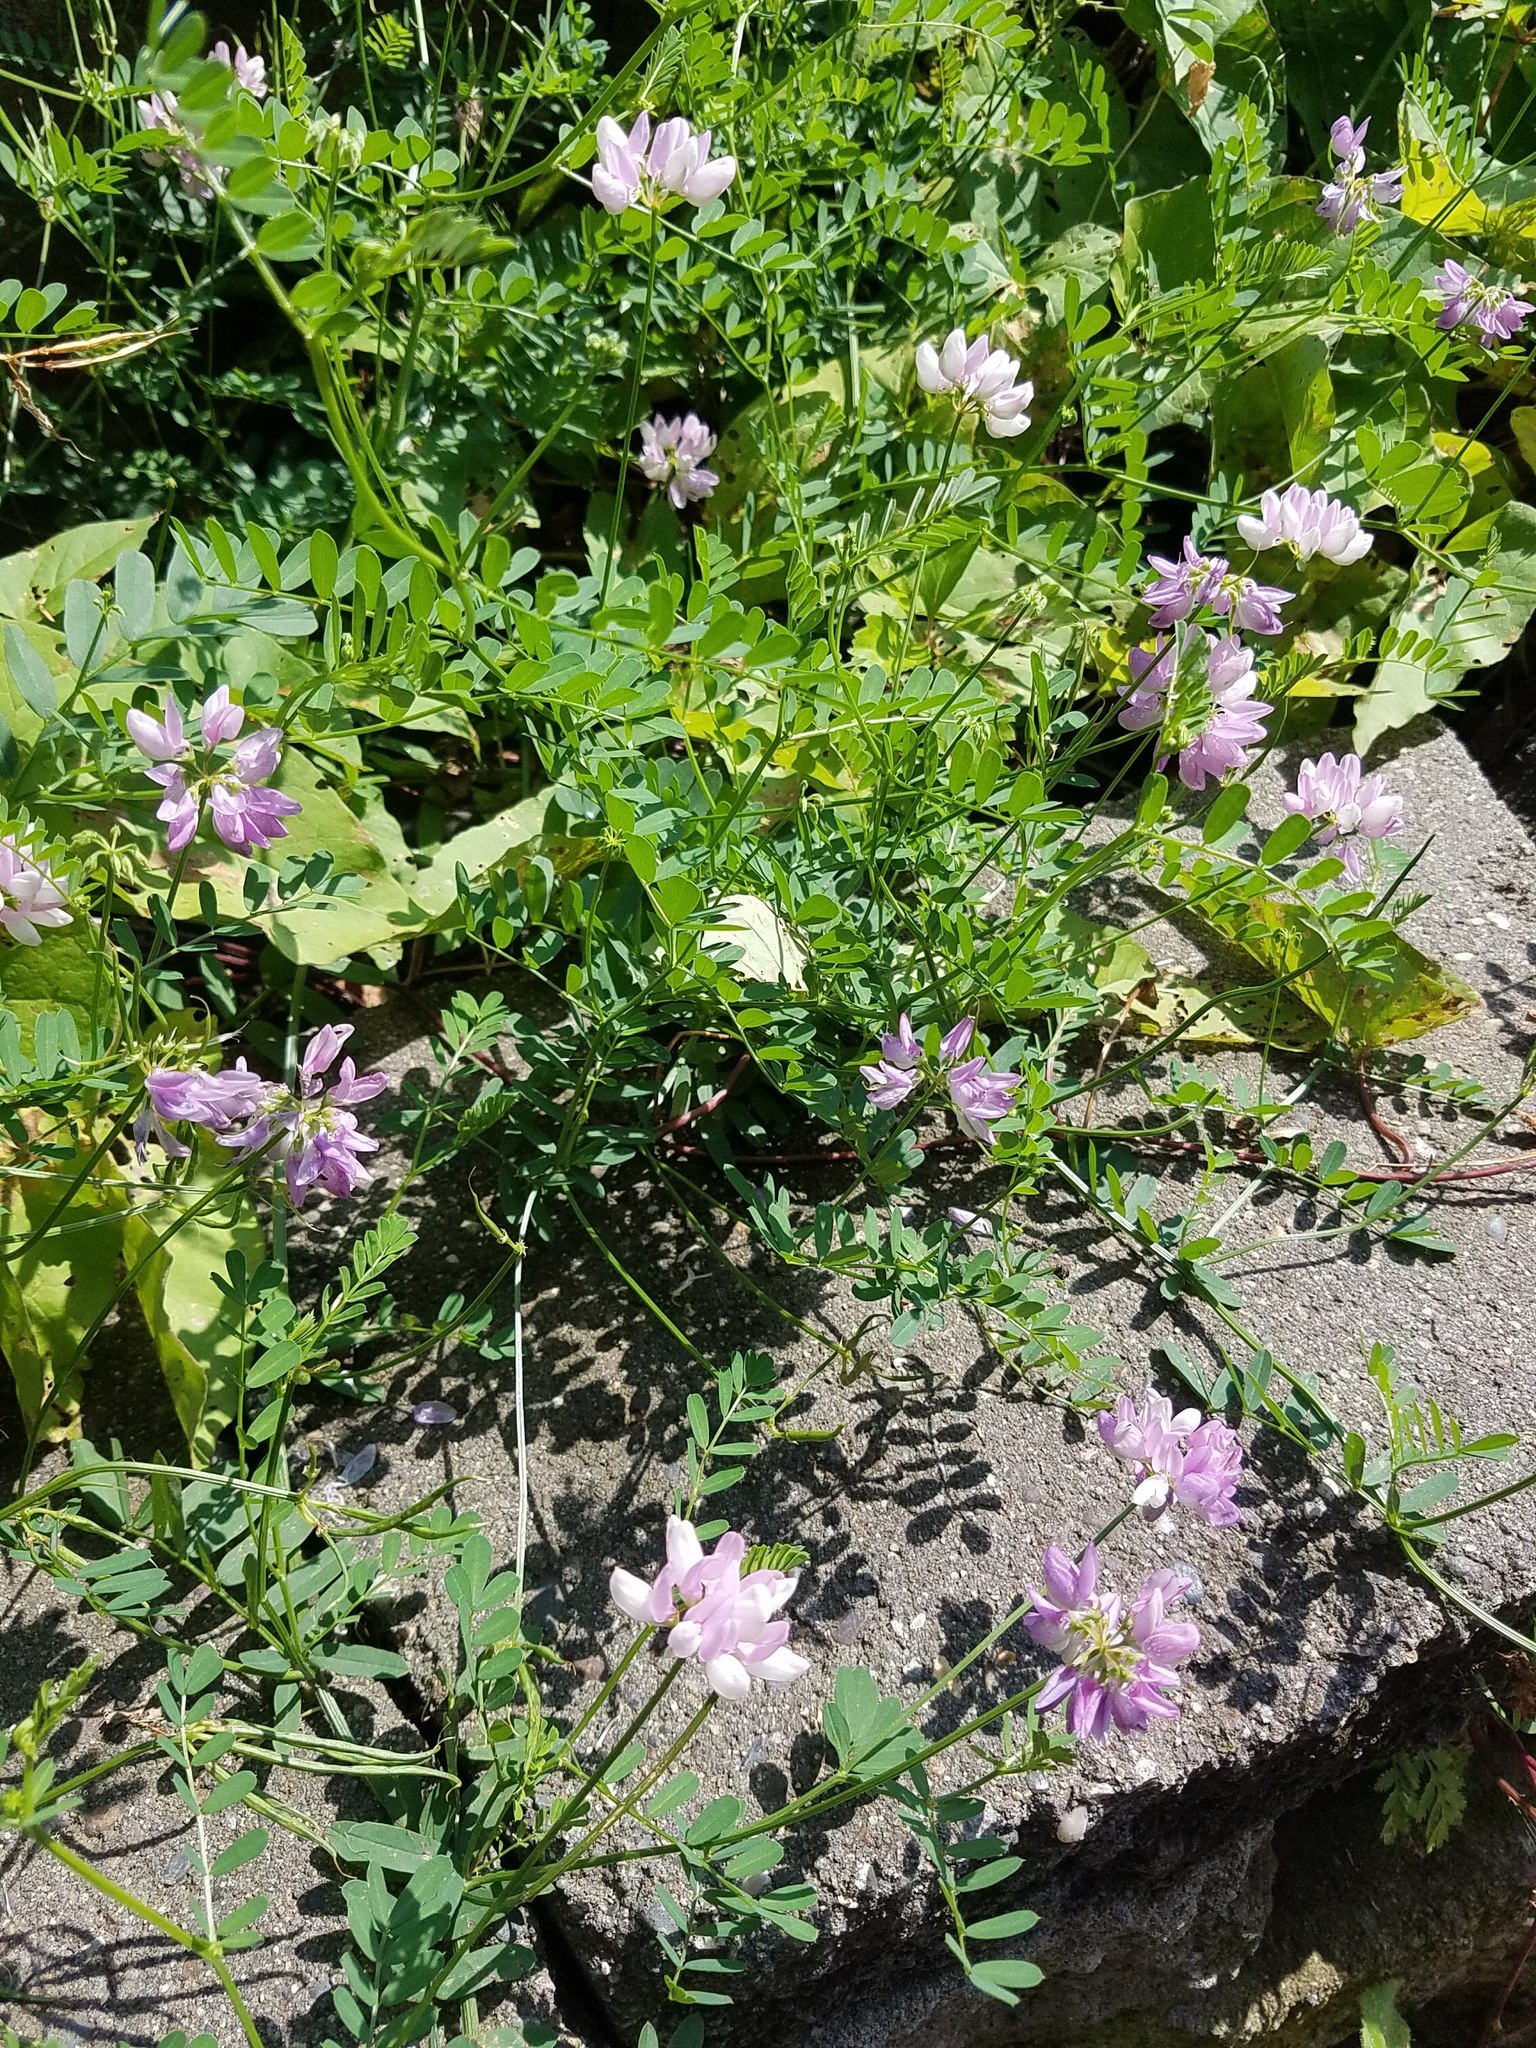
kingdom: Plantae
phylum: Tracheophyta
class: Magnoliopsida
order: Fabales
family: Fabaceae
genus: Coronilla
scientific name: Coronilla varia
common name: Crownvetch
